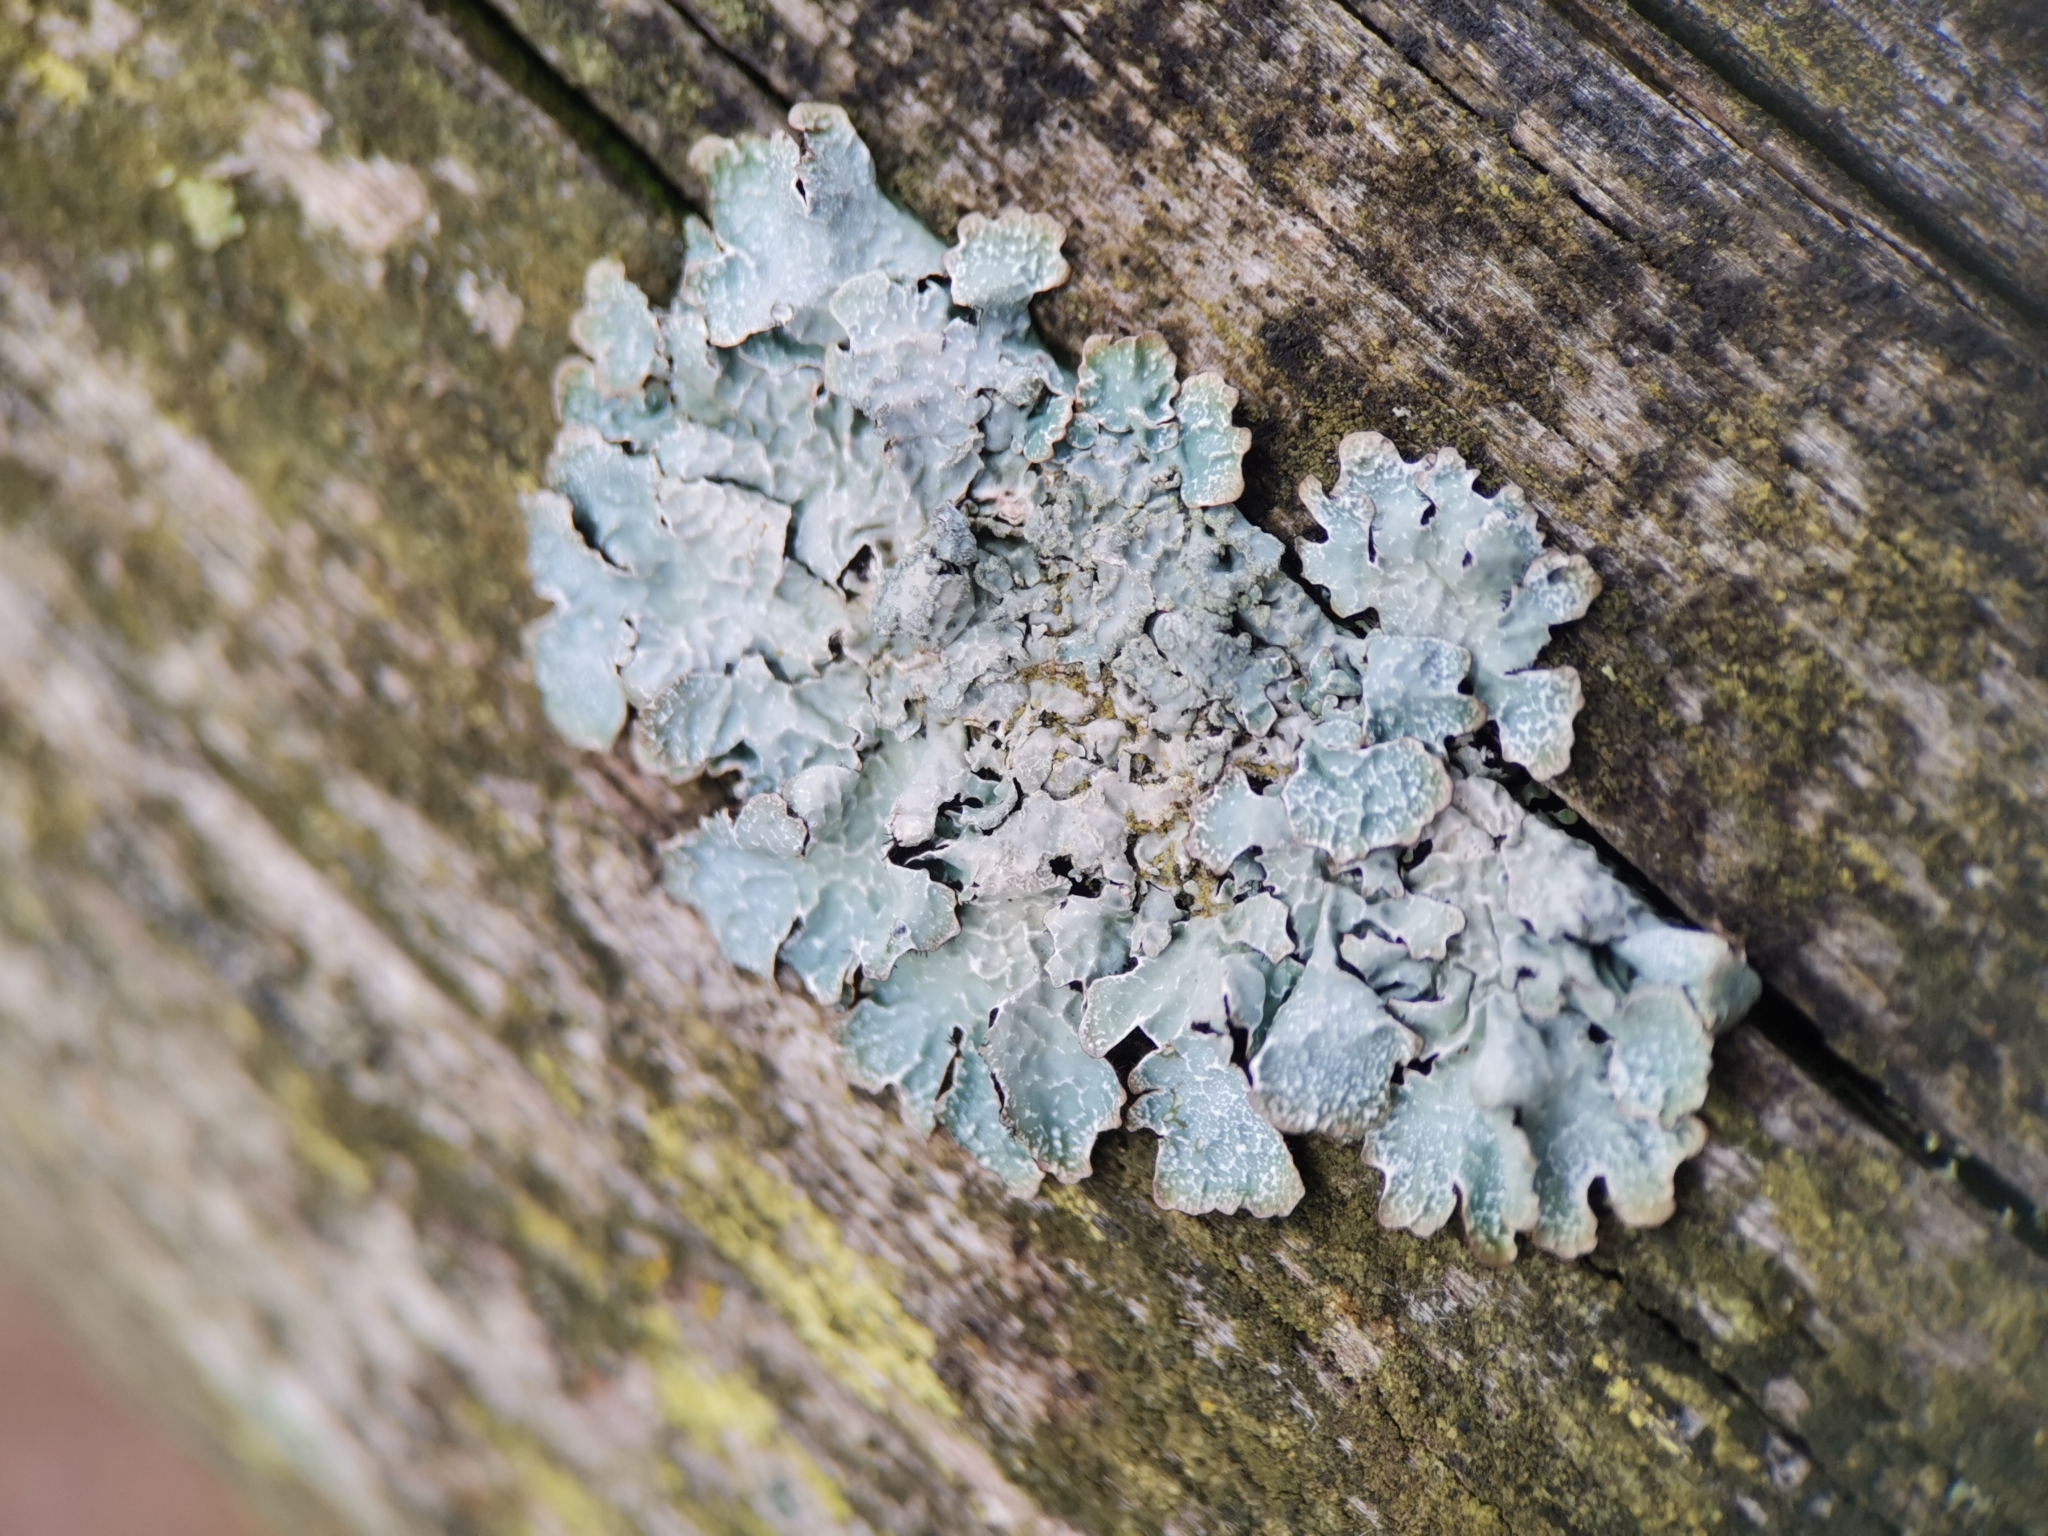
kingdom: Fungi
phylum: Ascomycota
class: Lecanoromycetes
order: Lecanorales
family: Parmeliaceae
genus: Parmelia
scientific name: Parmelia sulcata
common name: Netted shield lichen
